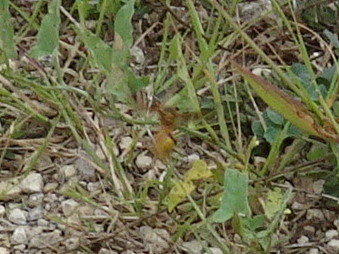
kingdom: Animalia
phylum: Arthropoda
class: Insecta
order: Hymenoptera
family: Vespidae
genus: Eumenes
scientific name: Eumenes bollii
